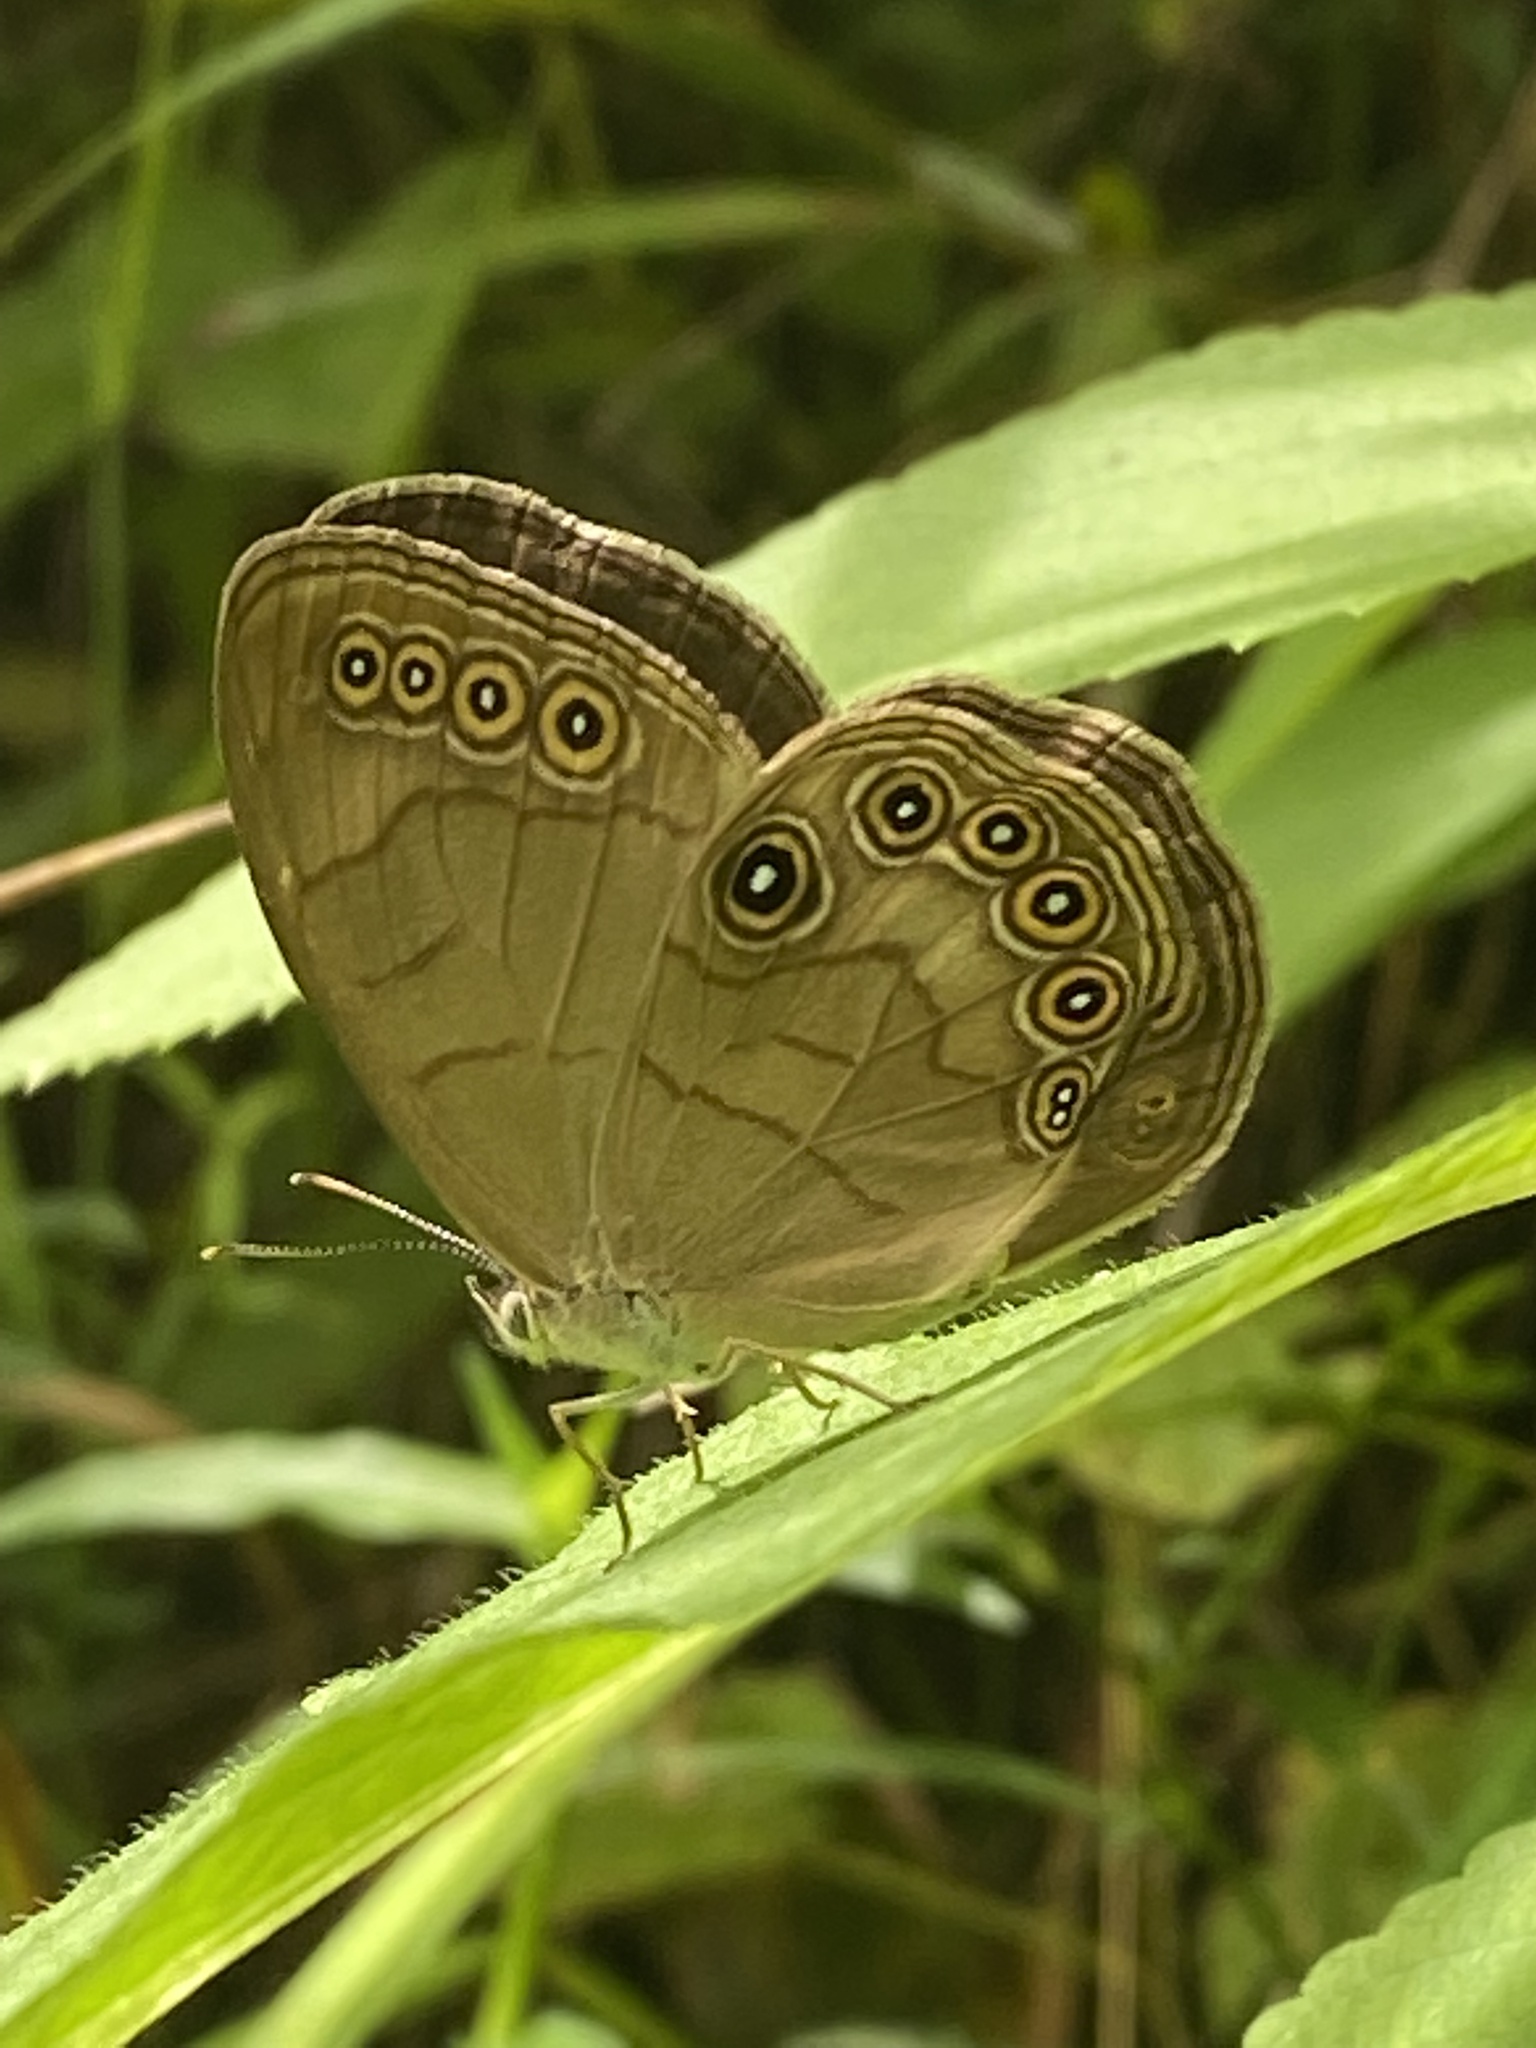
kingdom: Animalia
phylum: Arthropoda
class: Insecta
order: Lepidoptera
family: Nymphalidae
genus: Lethe
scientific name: Lethe eurydice
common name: Eyed brown
